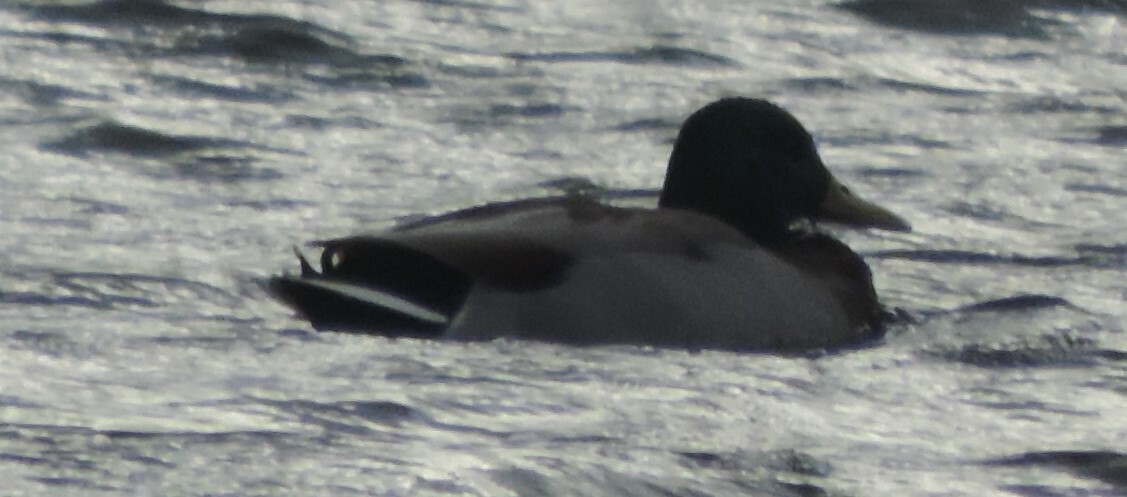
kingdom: Animalia
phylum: Chordata
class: Aves
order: Anseriformes
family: Anatidae
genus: Anas
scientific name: Anas platyrhynchos
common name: Mallard
